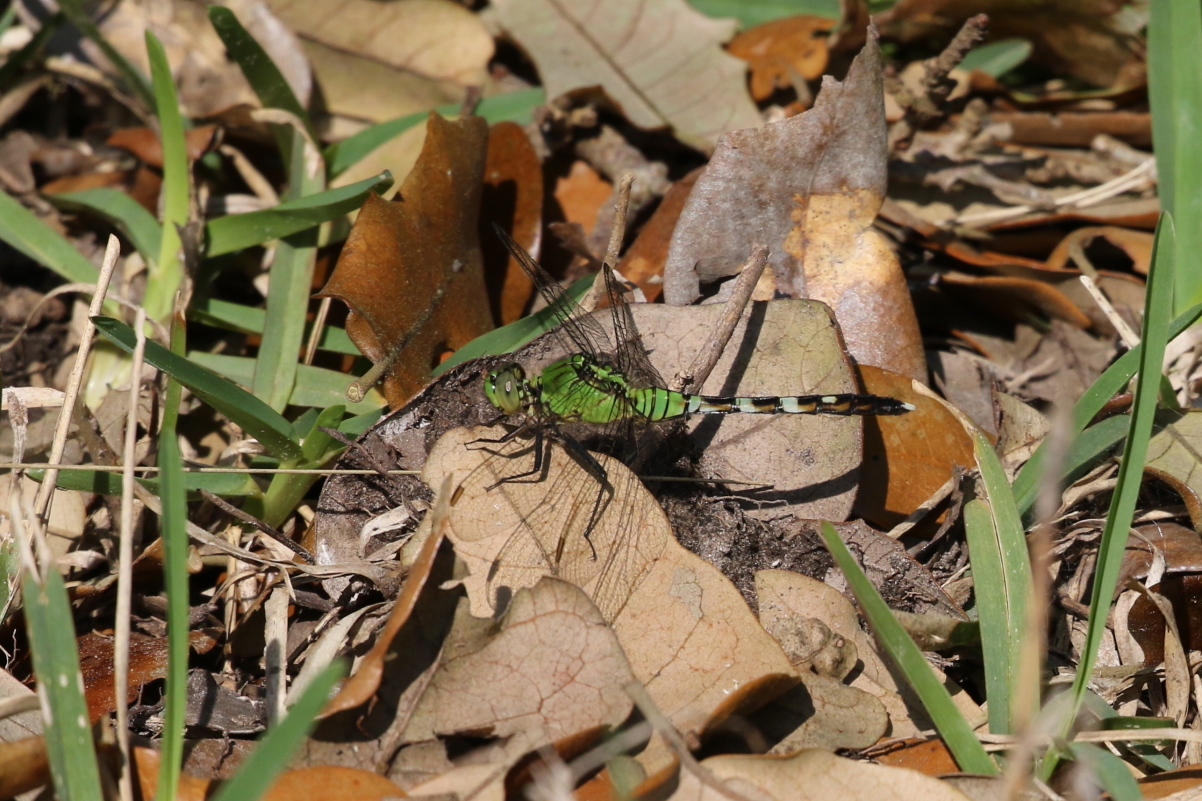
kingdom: Animalia
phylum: Arthropoda
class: Insecta
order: Odonata
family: Libellulidae
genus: Erythemis
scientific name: Erythemis simplicicollis
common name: Eastern pondhawk
